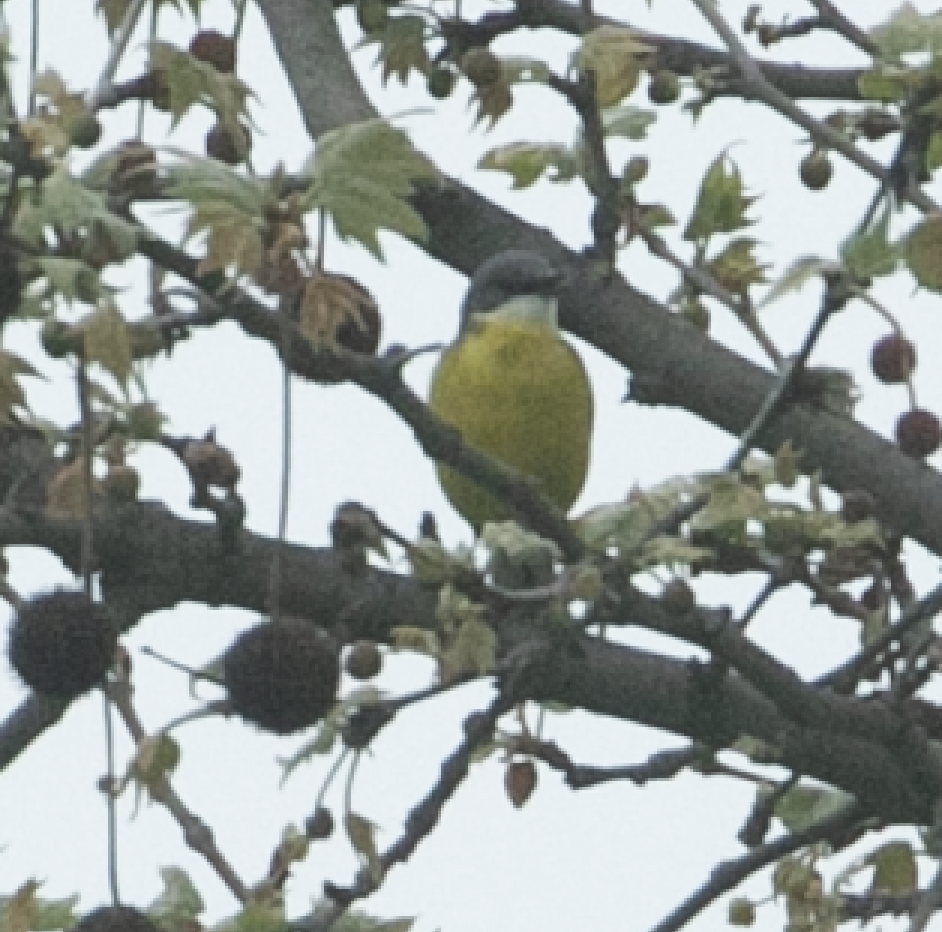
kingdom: Animalia
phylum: Chordata
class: Aves
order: Passeriformes
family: Motacillidae
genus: Motacilla
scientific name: Motacilla flava
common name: Western yellow wagtail
